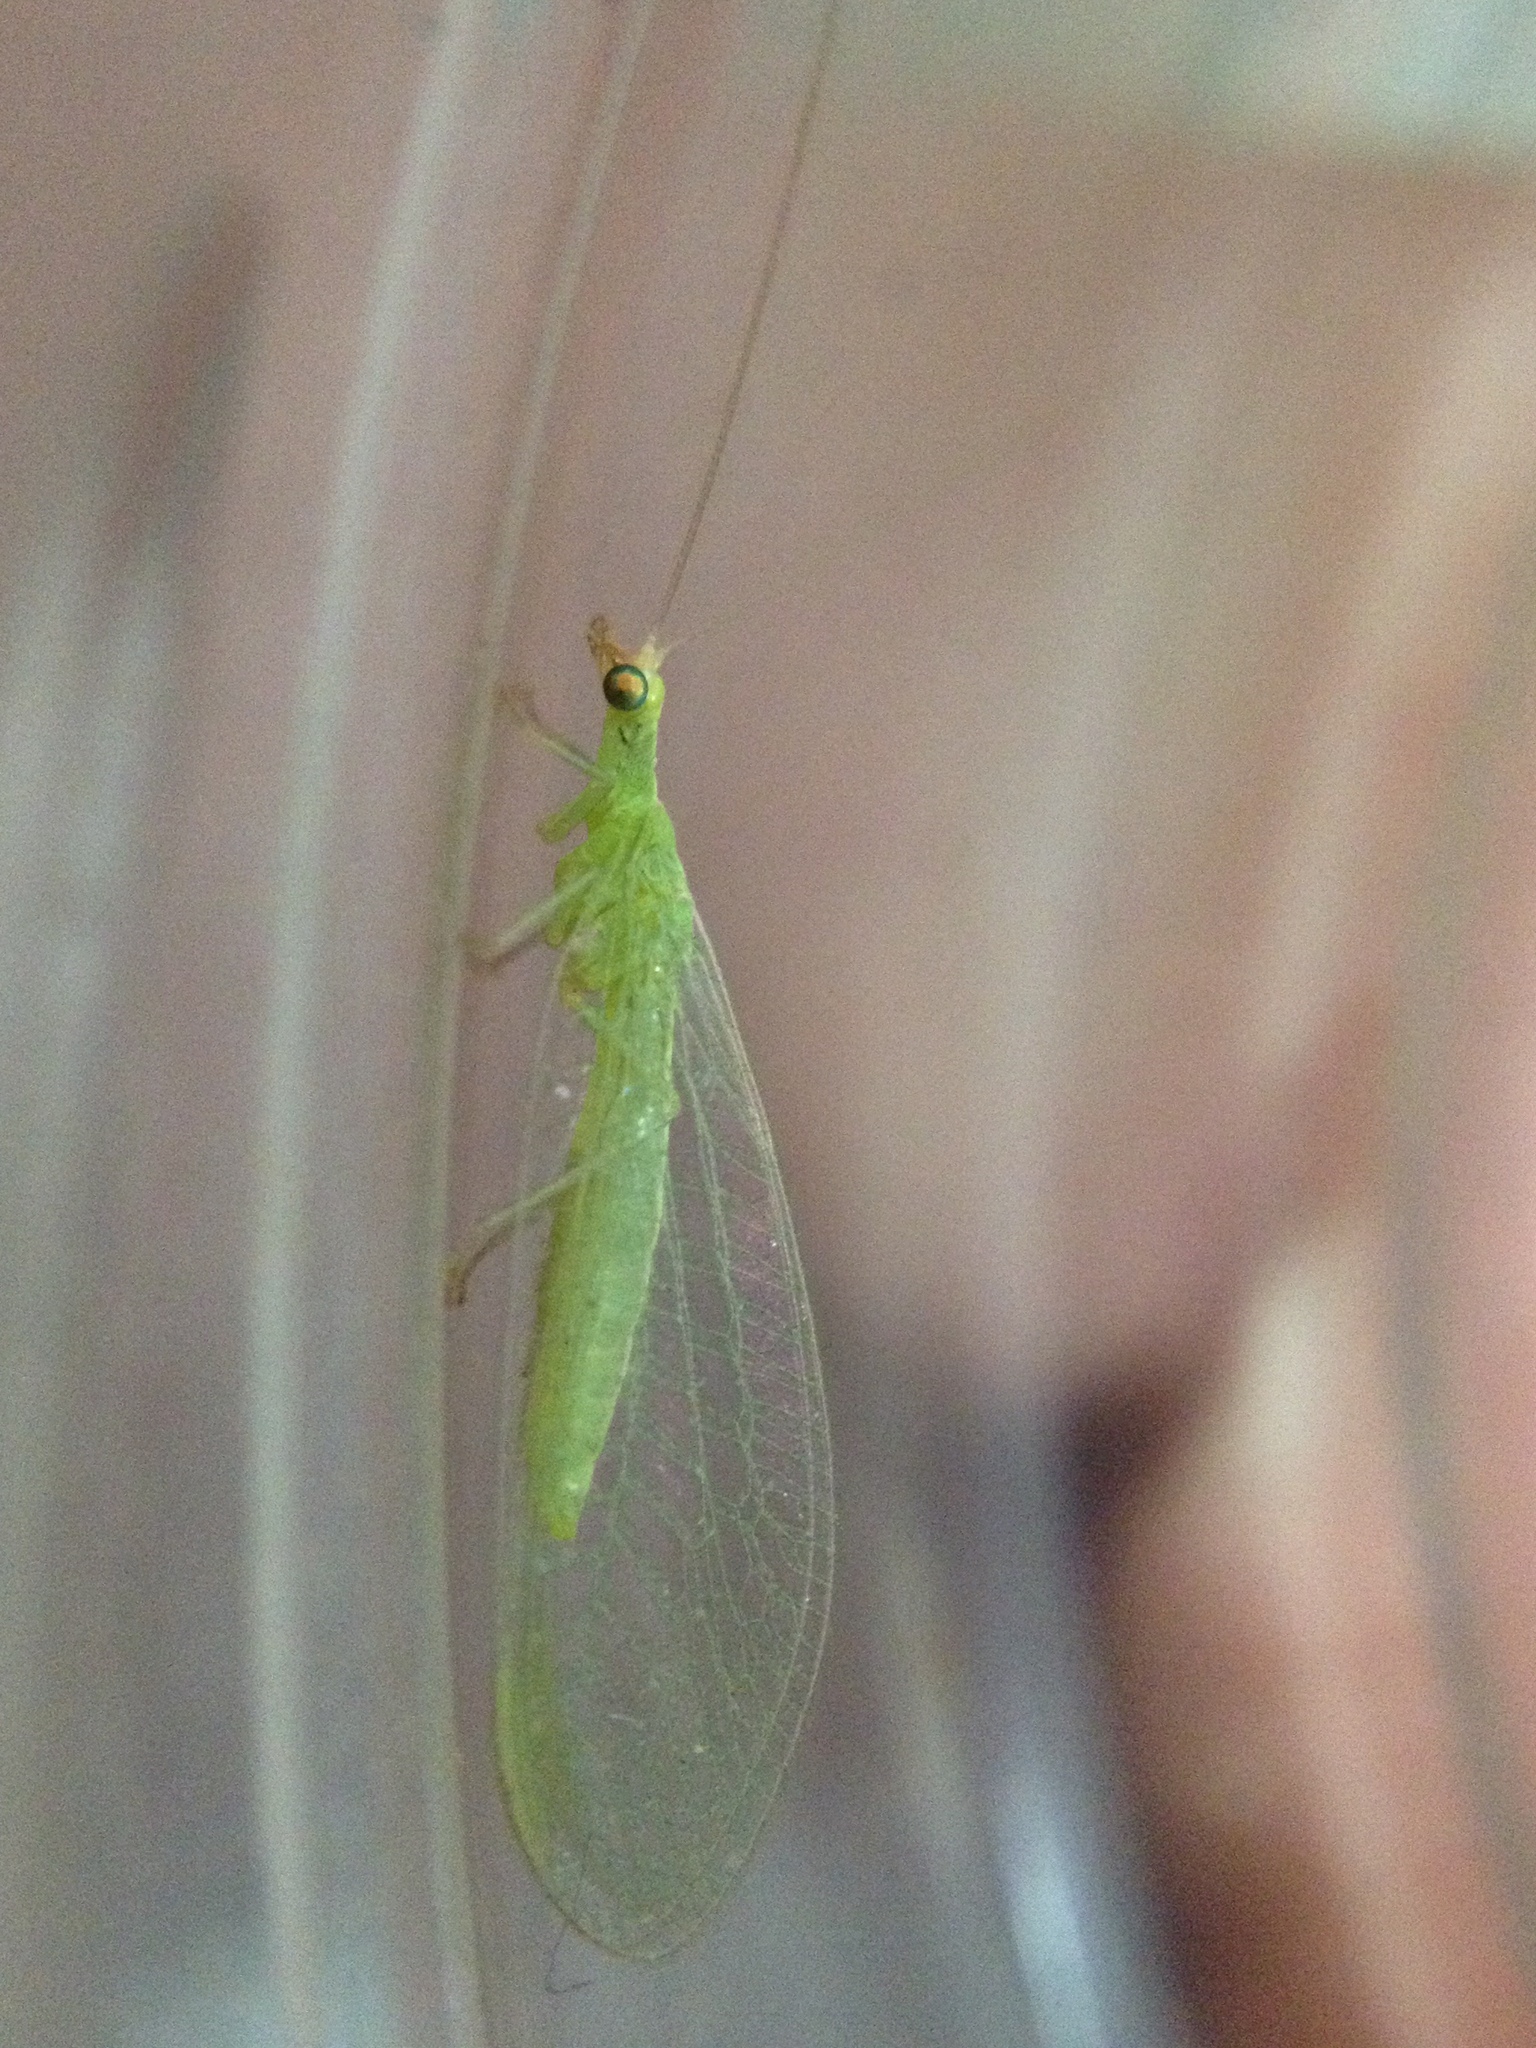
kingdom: Animalia
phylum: Arthropoda
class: Insecta
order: Neuroptera
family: Chrysopidae
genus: Chrysoperla
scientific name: Chrysoperla
